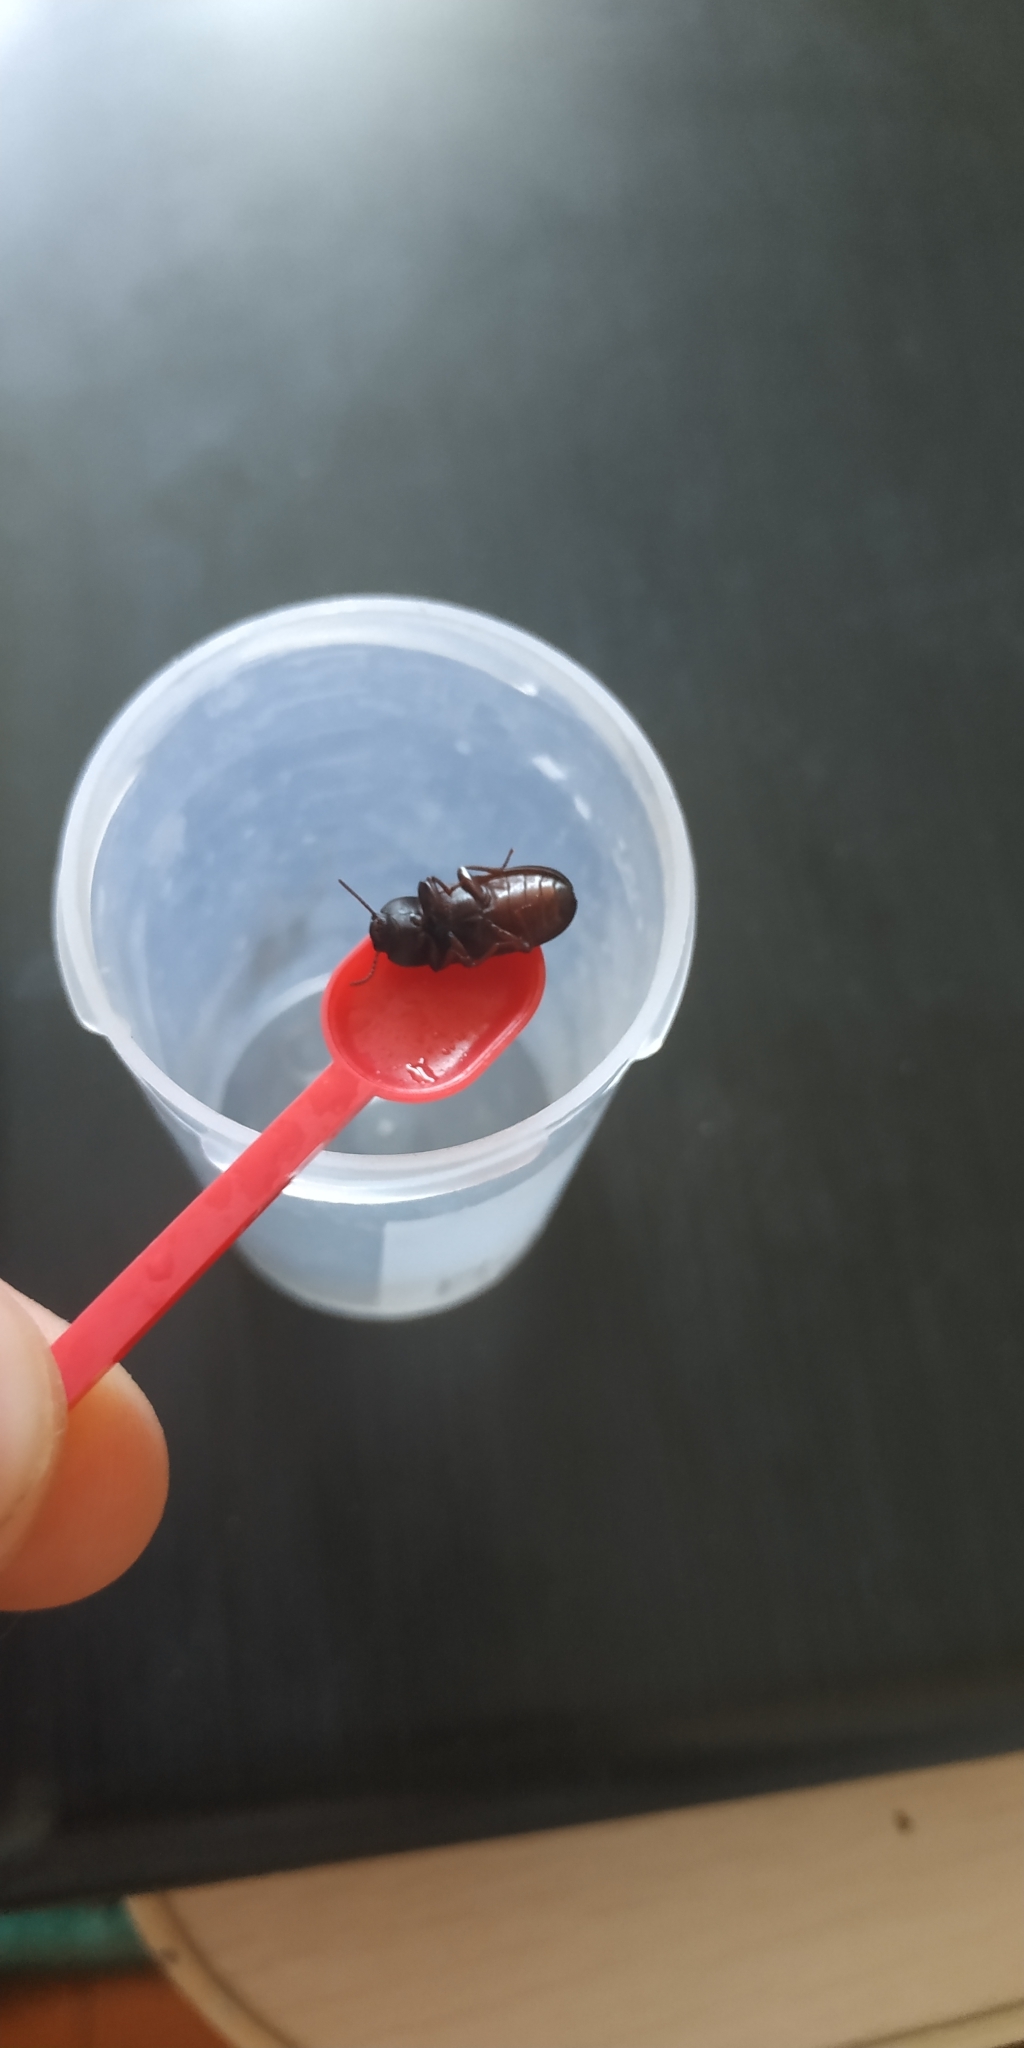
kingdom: Animalia
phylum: Arthropoda
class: Insecta
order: Coleoptera
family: Tenebrionidae
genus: Tenebrio
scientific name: Tenebrio molitor
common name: Hardback beetle
